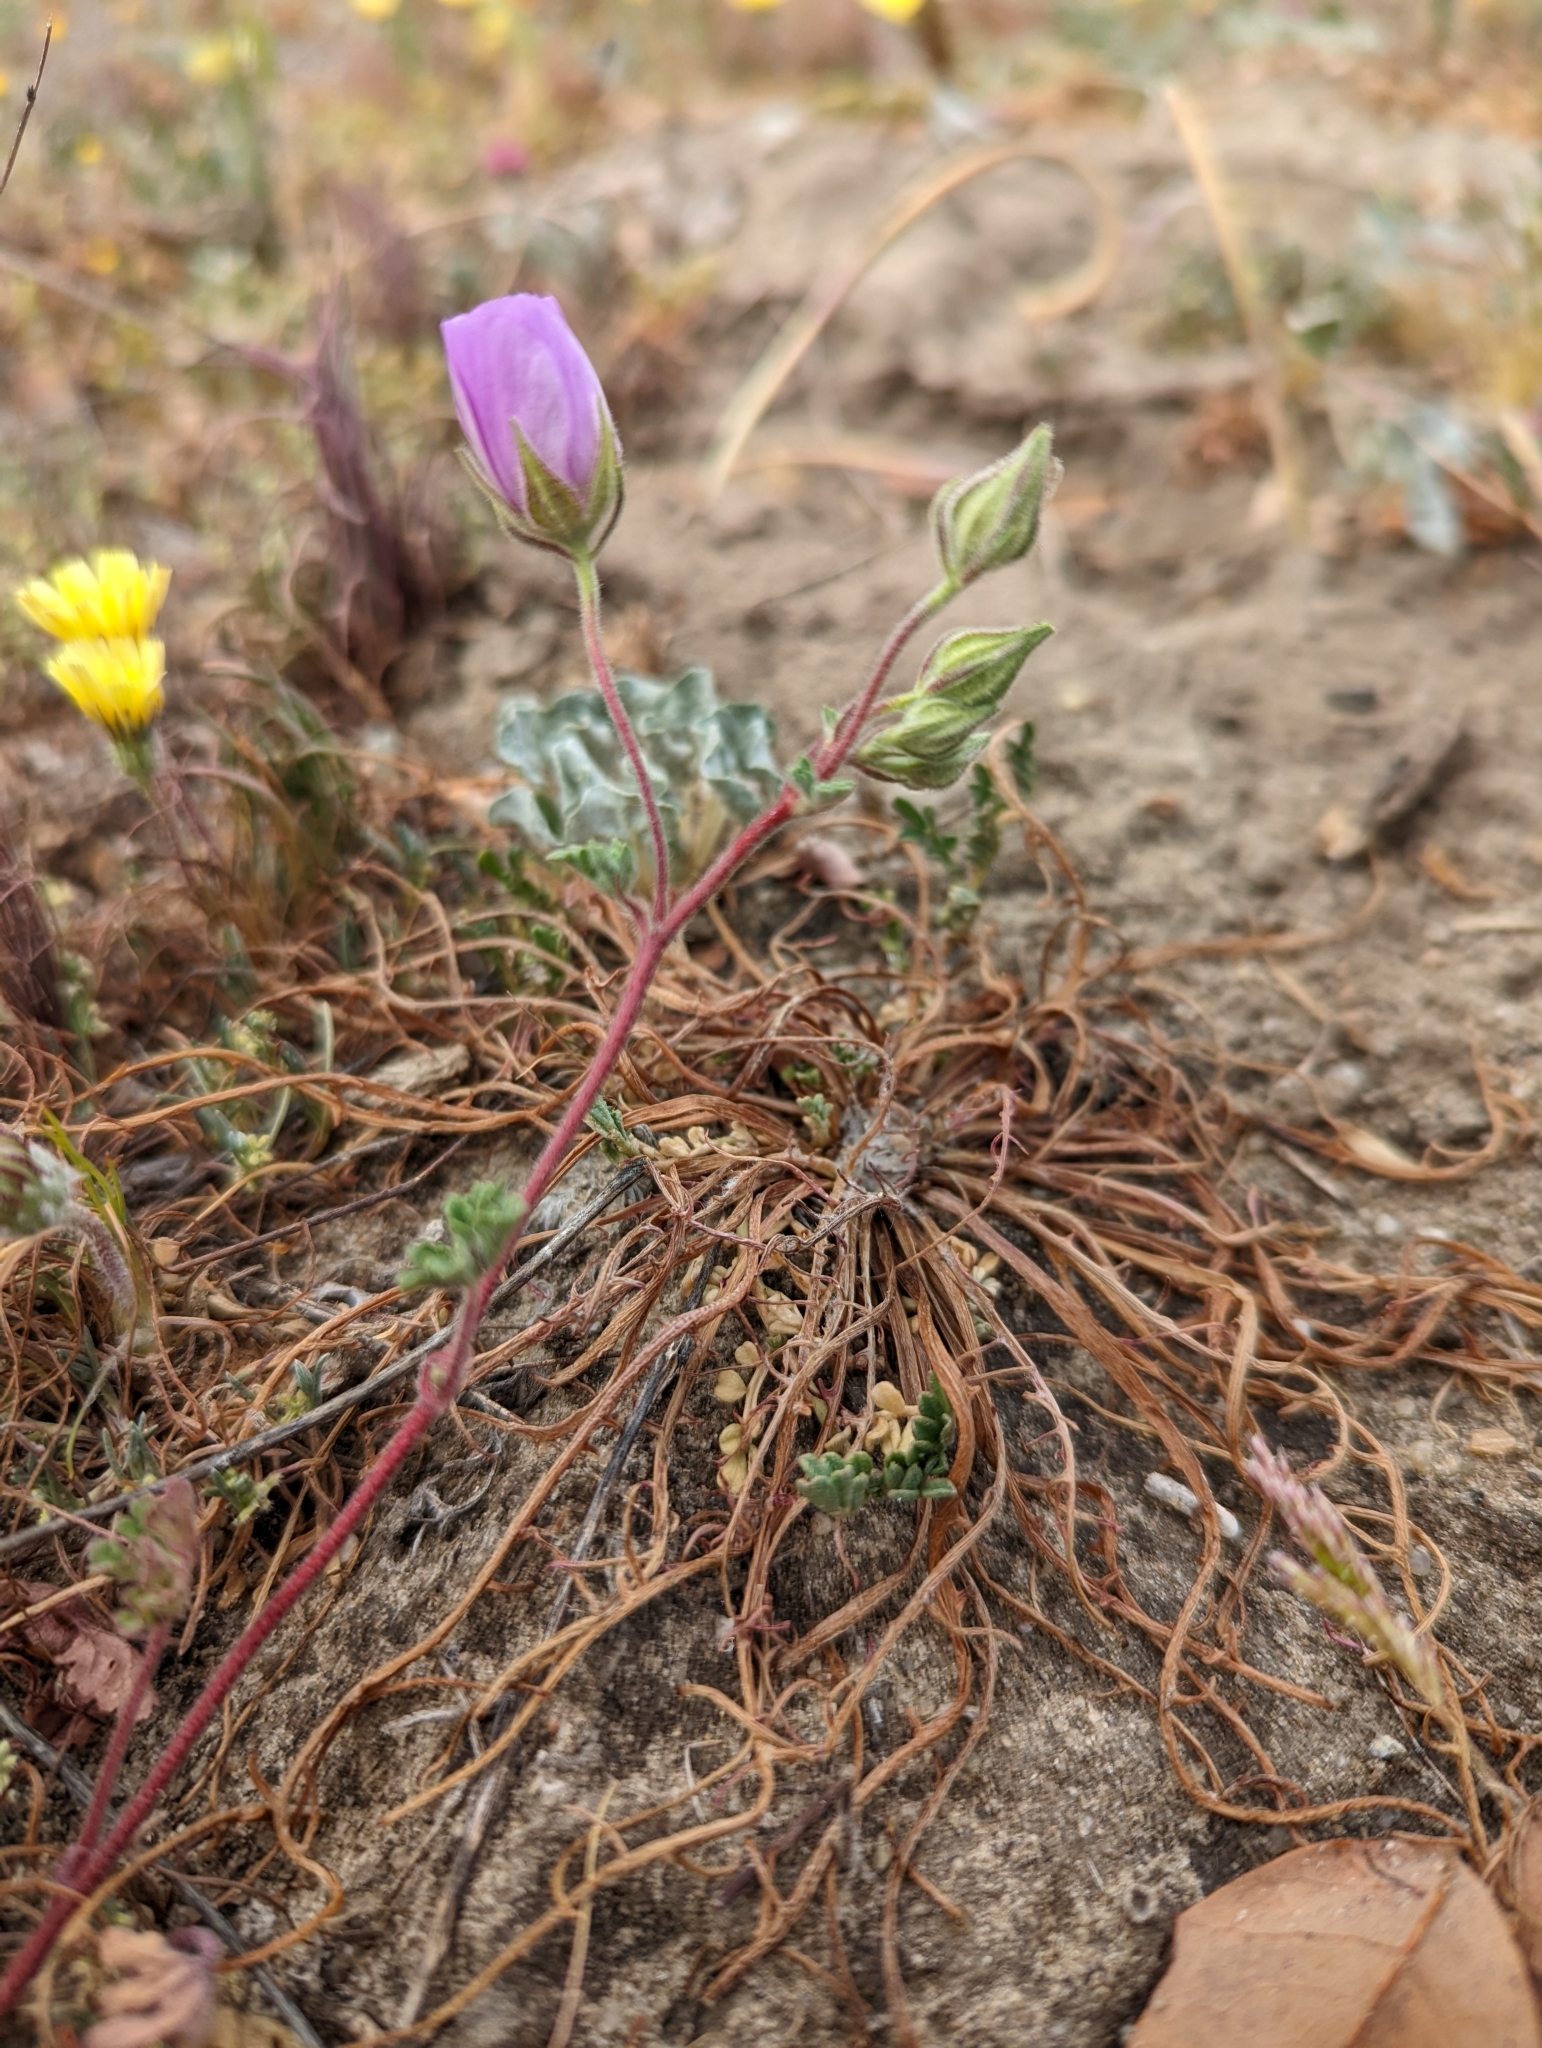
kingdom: Plantae
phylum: Tracheophyta
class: Magnoliopsida
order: Malvales
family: Malvaceae
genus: Eremalche
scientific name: Eremalche parryi
